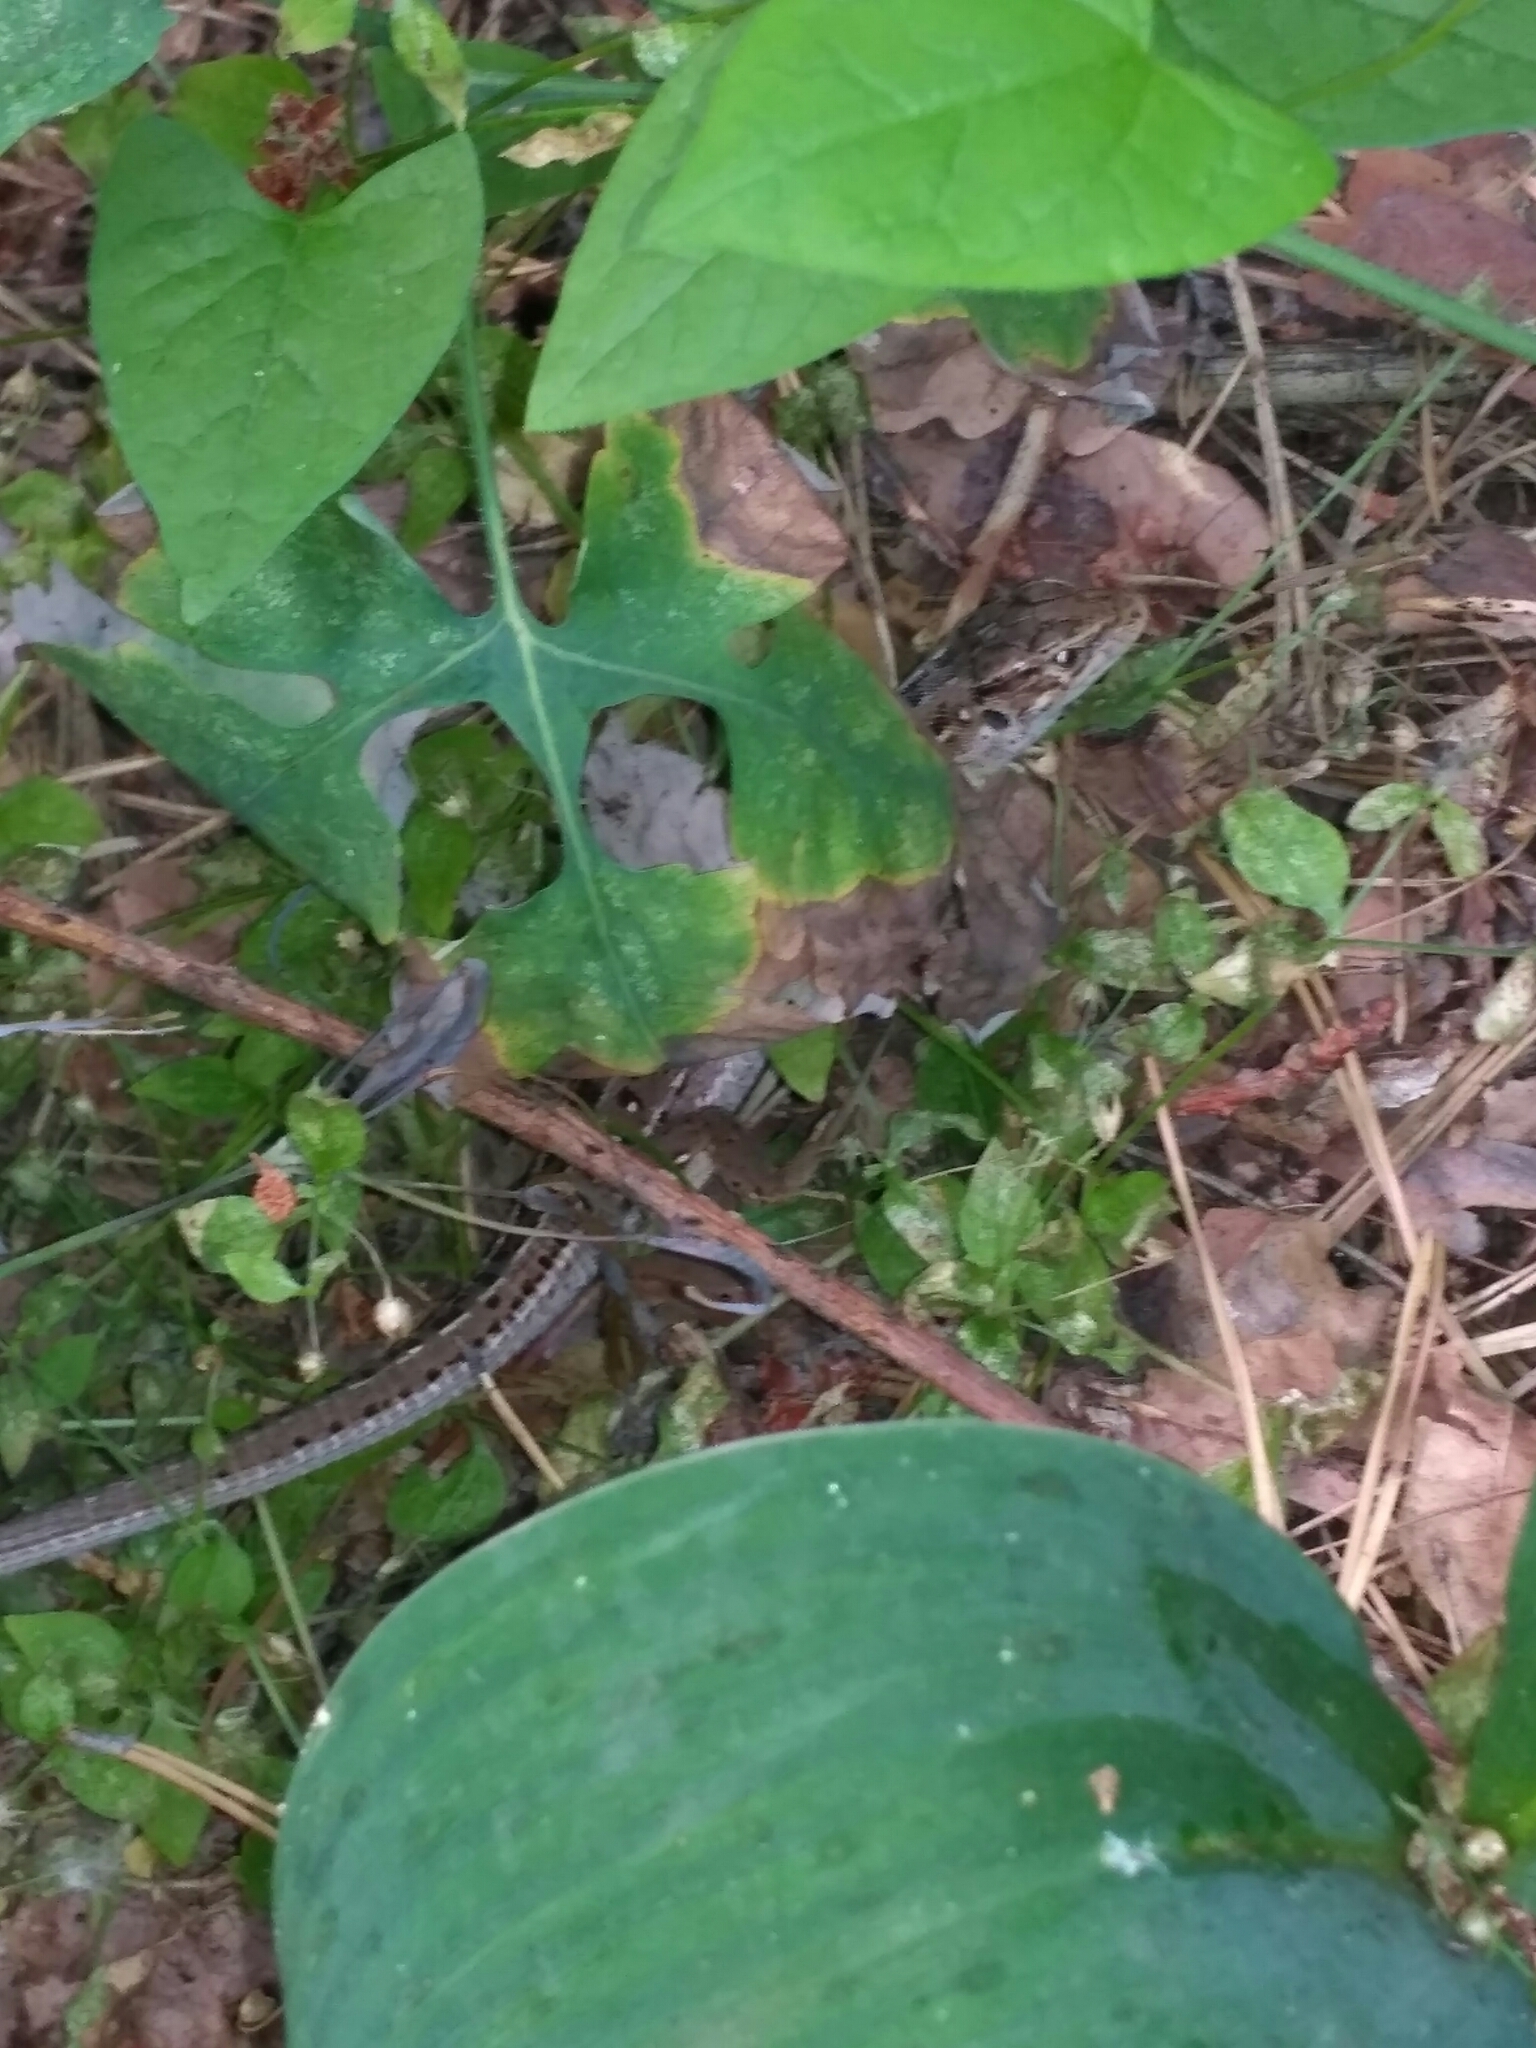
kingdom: Animalia
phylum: Chordata
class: Squamata
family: Lacertidae
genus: Lacerta
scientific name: Lacerta agilis
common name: Sand lizard
